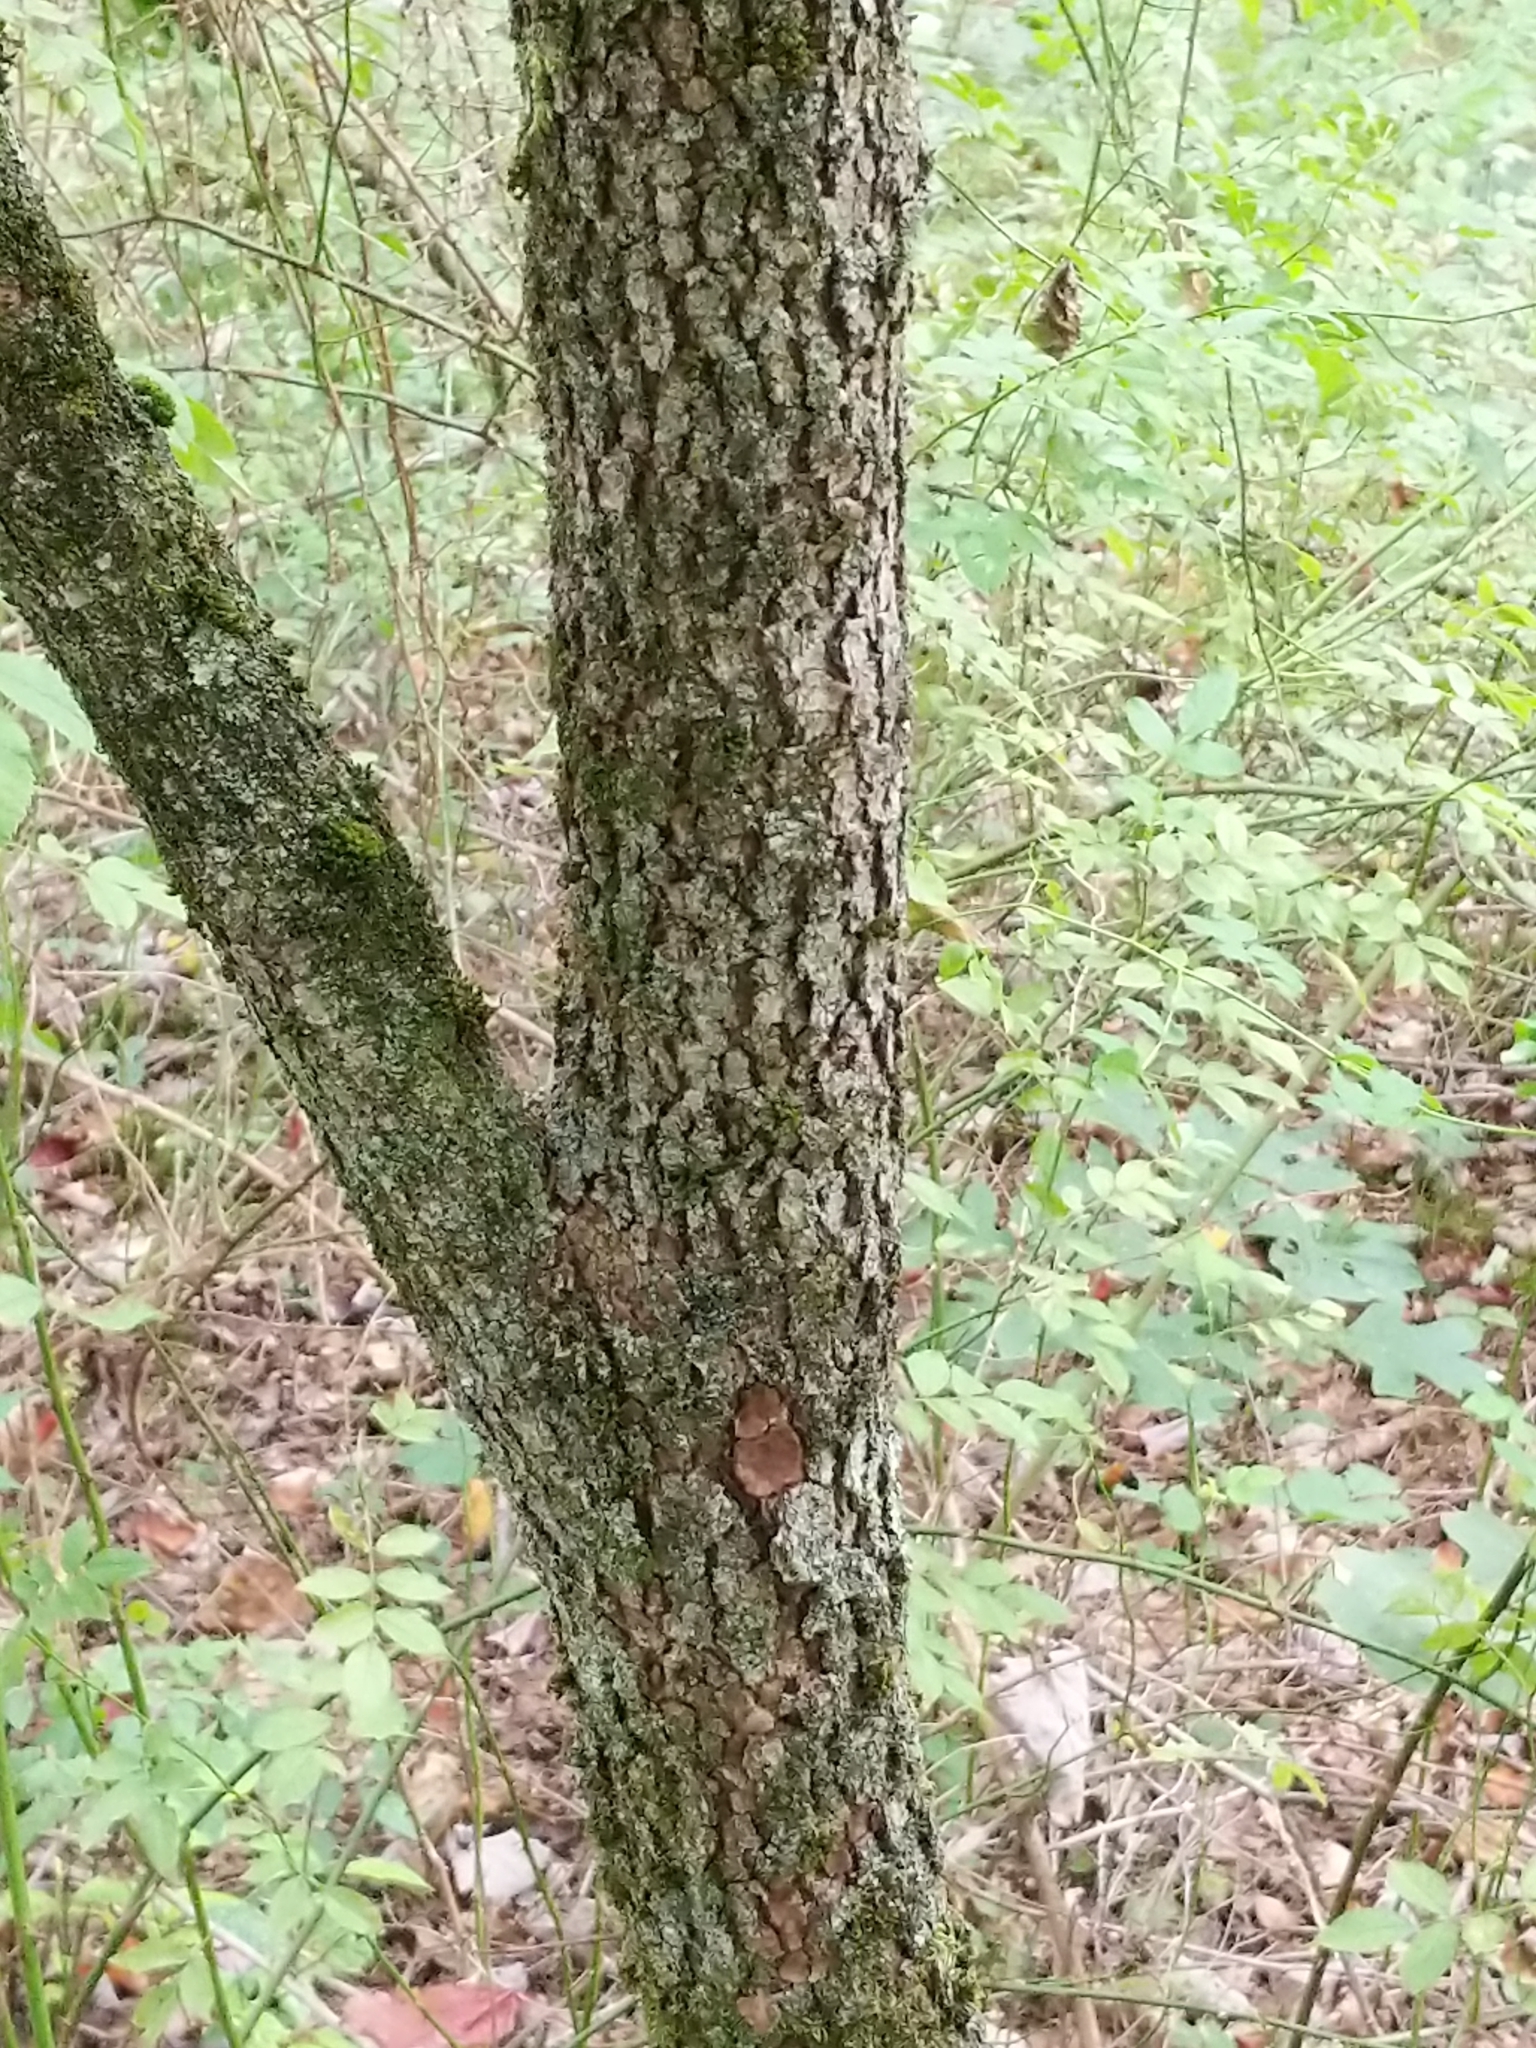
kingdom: Plantae
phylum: Tracheophyta
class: Magnoliopsida
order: Cornales
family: Cornaceae
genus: Cornus
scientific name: Cornus florida
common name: Flowering dogwood
